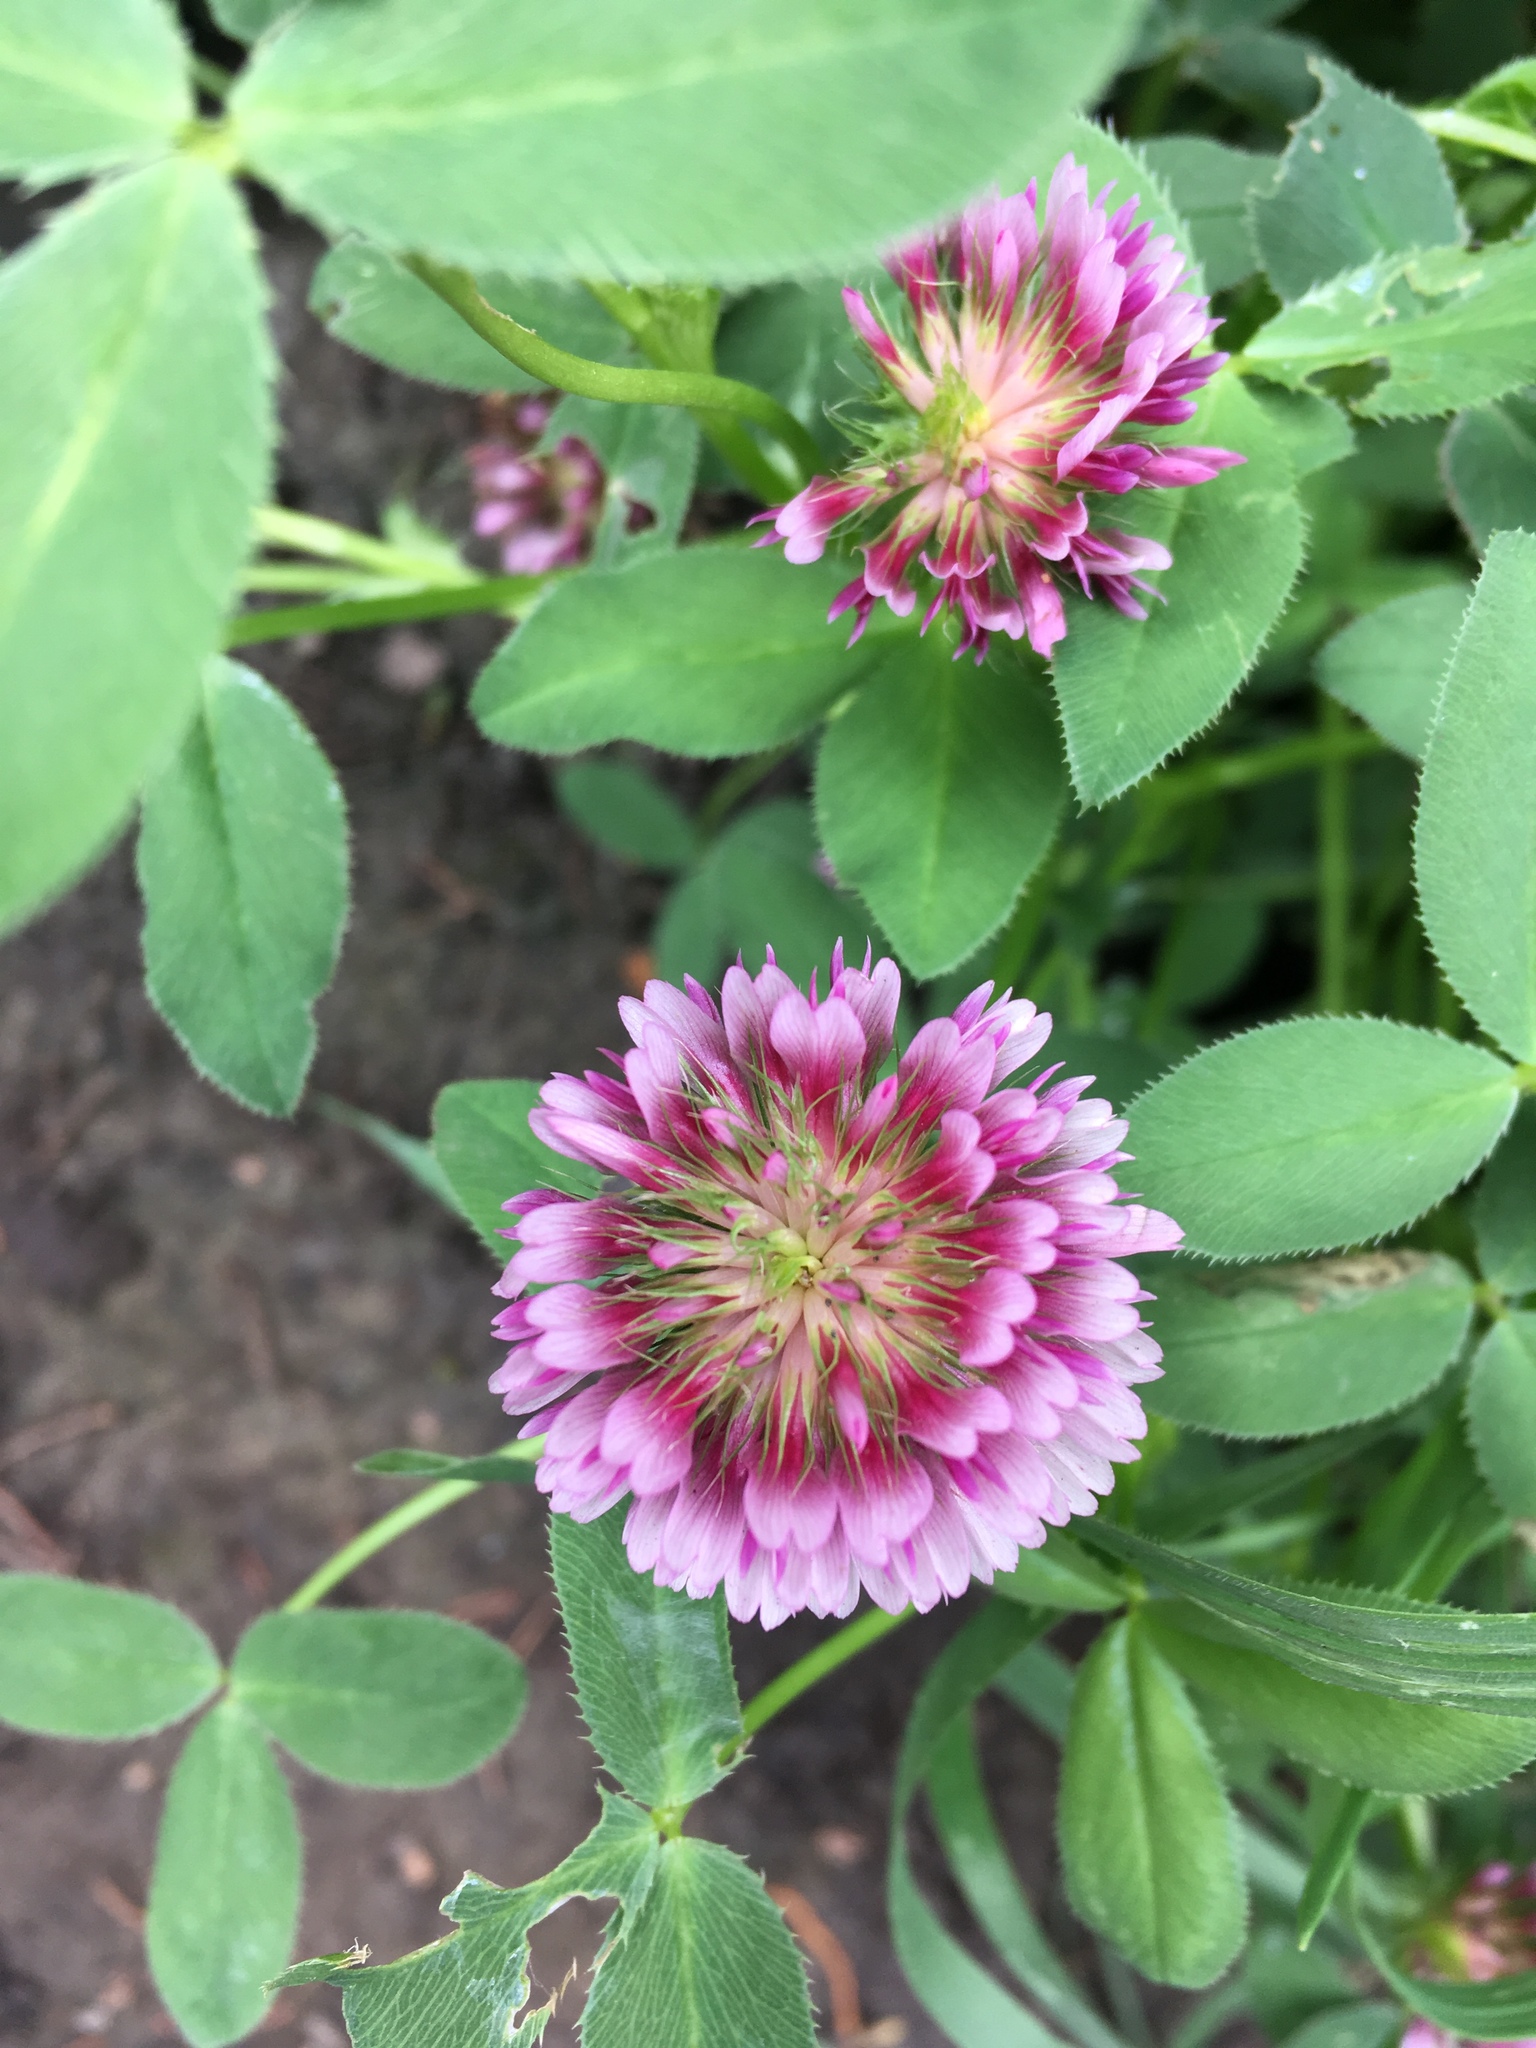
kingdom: Plantae
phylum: Tracheophyta
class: Magnoliopsida
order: Fabales
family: Fabaceae
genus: Trifolium
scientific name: Trifolium wormskioldii
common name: Springbank clover
